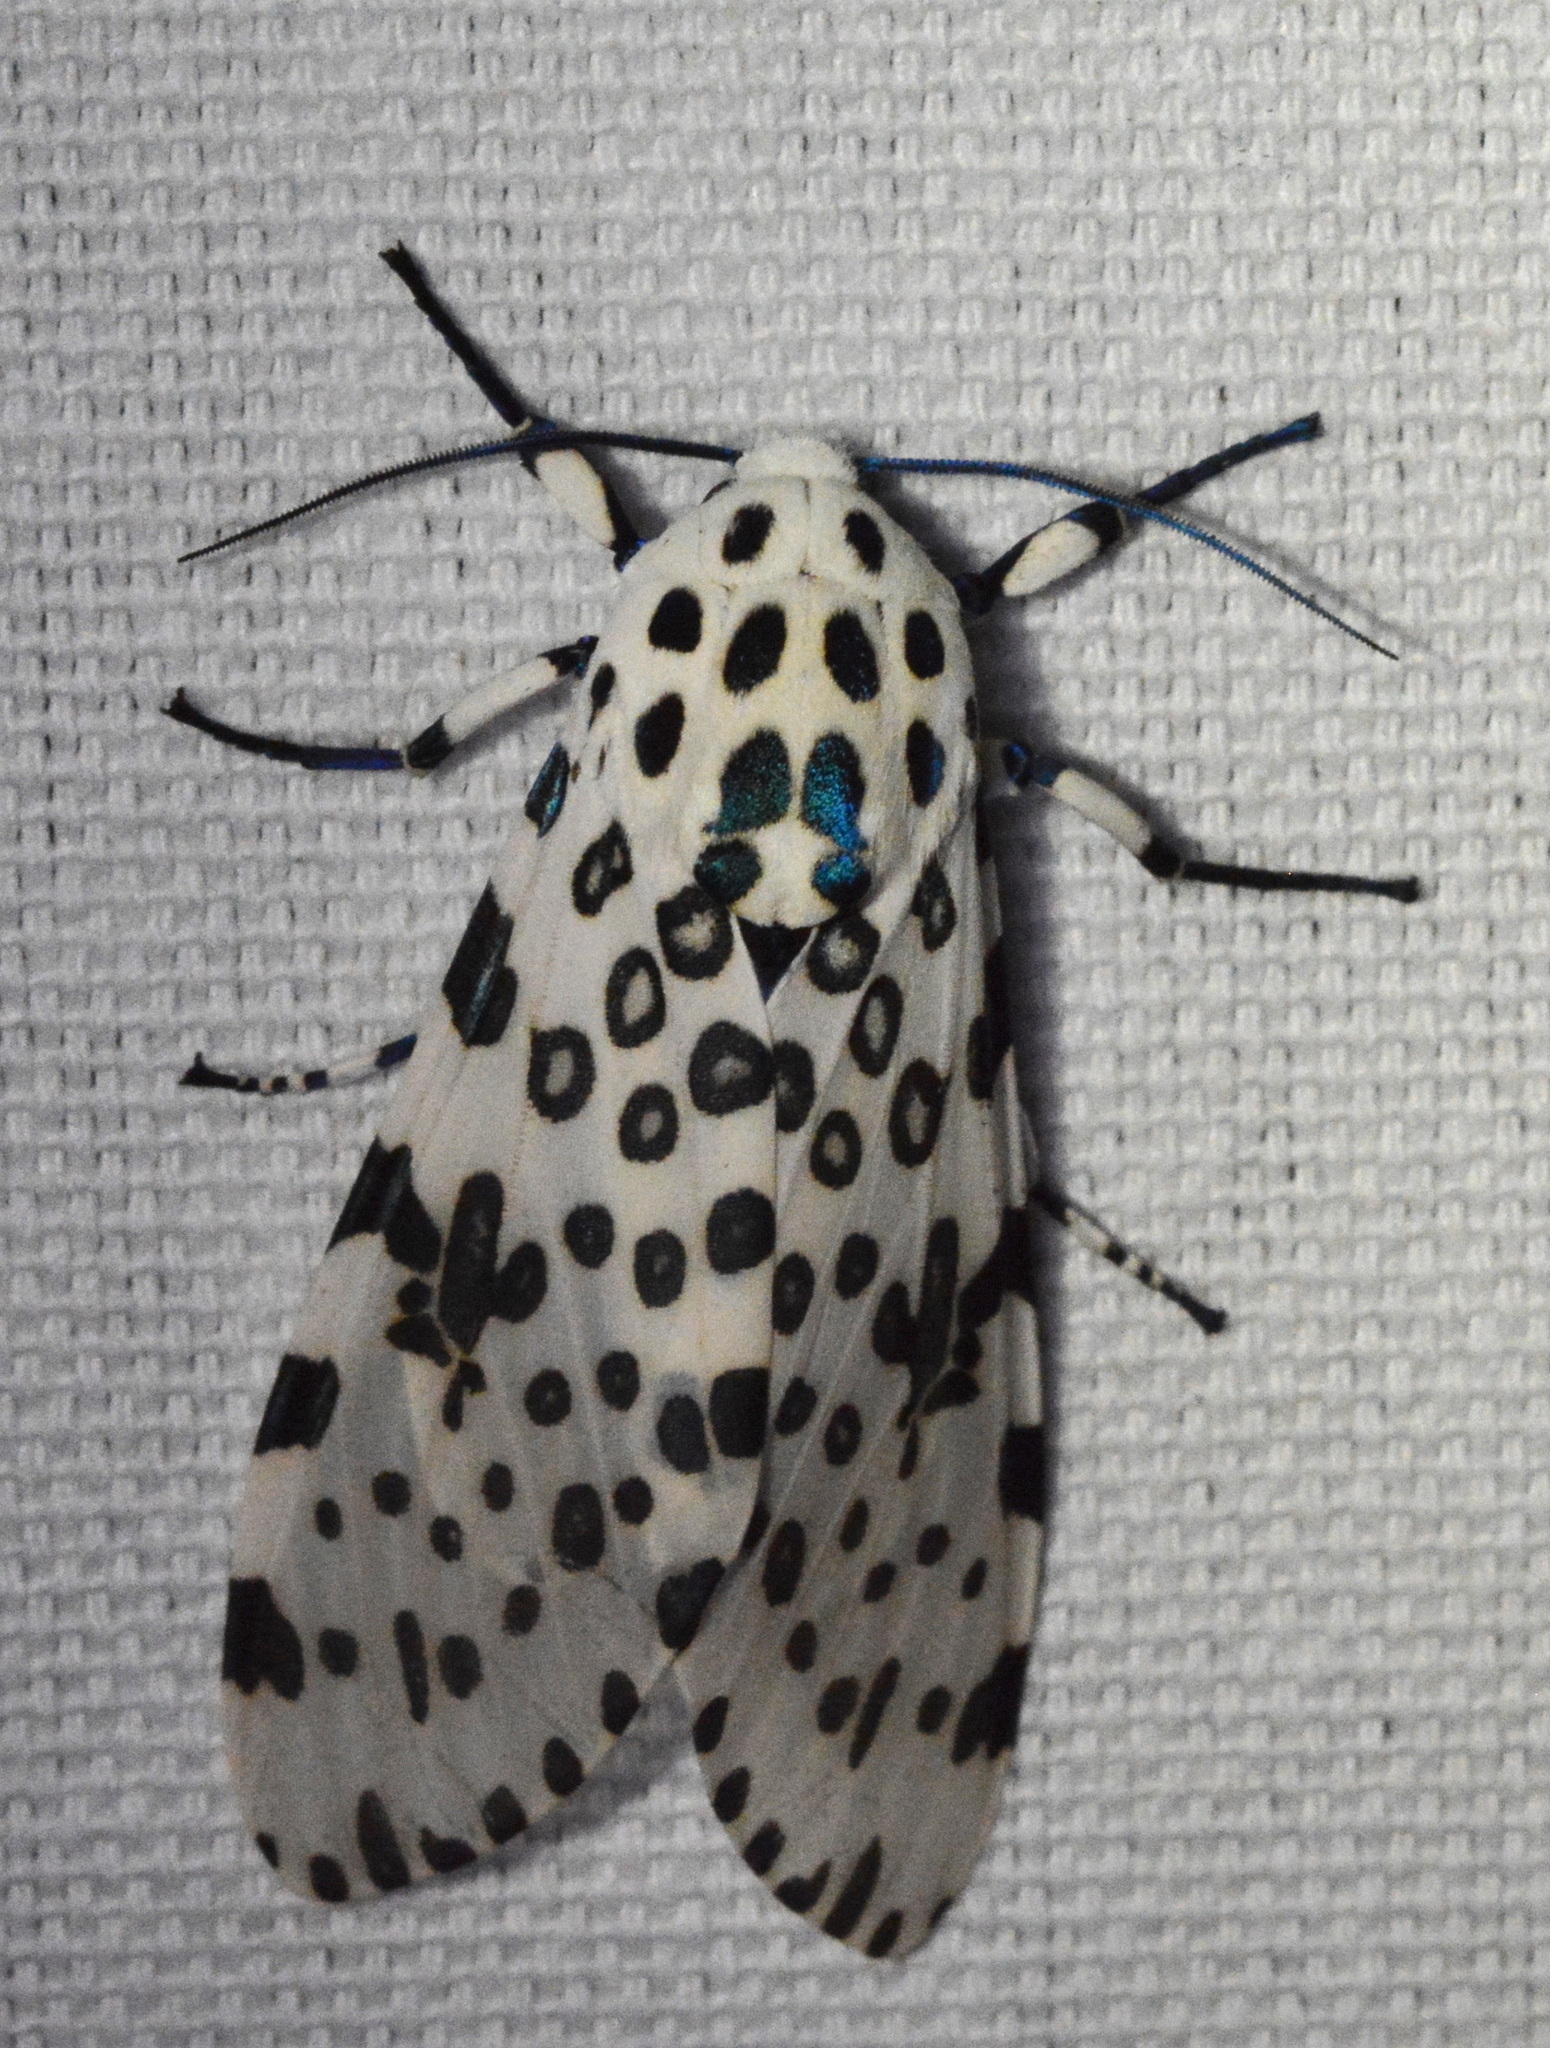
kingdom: Animalia
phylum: Arthropoda
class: Insecta
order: Lepidoptera
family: Erebidae
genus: Hypercompe
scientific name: Hypercompe scribonia
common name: Giant leopard moth
